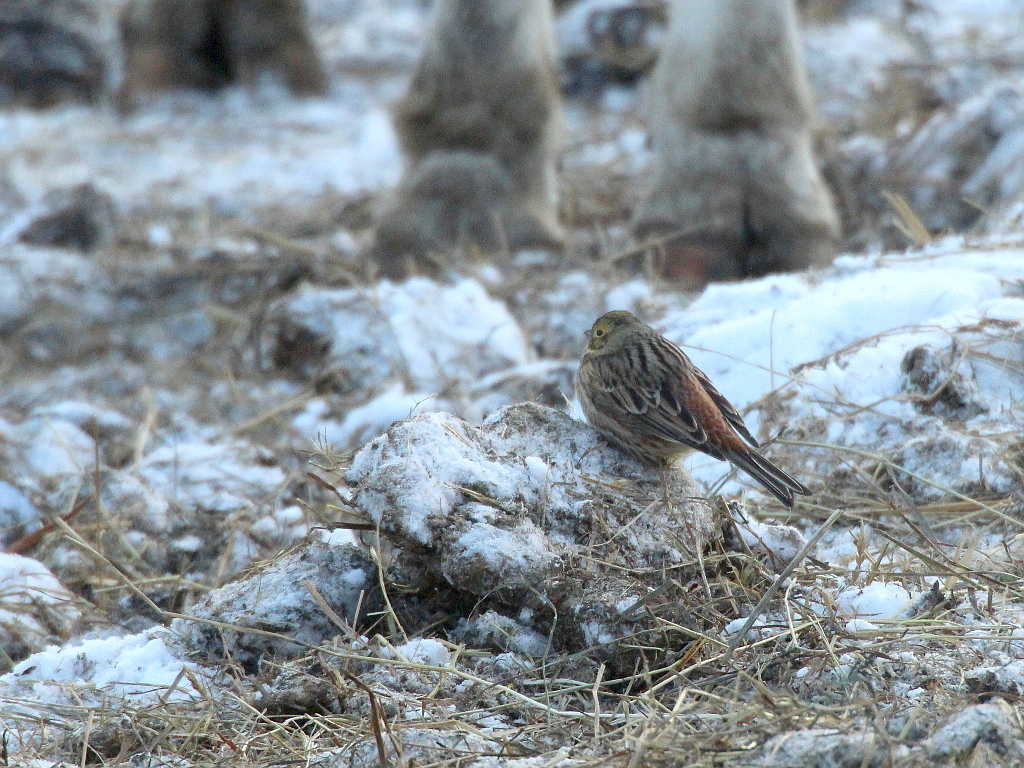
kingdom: Animalia
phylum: Chordata
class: Aves
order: Passeriformes
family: Emberizidae
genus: Emberiza
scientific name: Emberiza citrinella
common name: Yellowhammer
